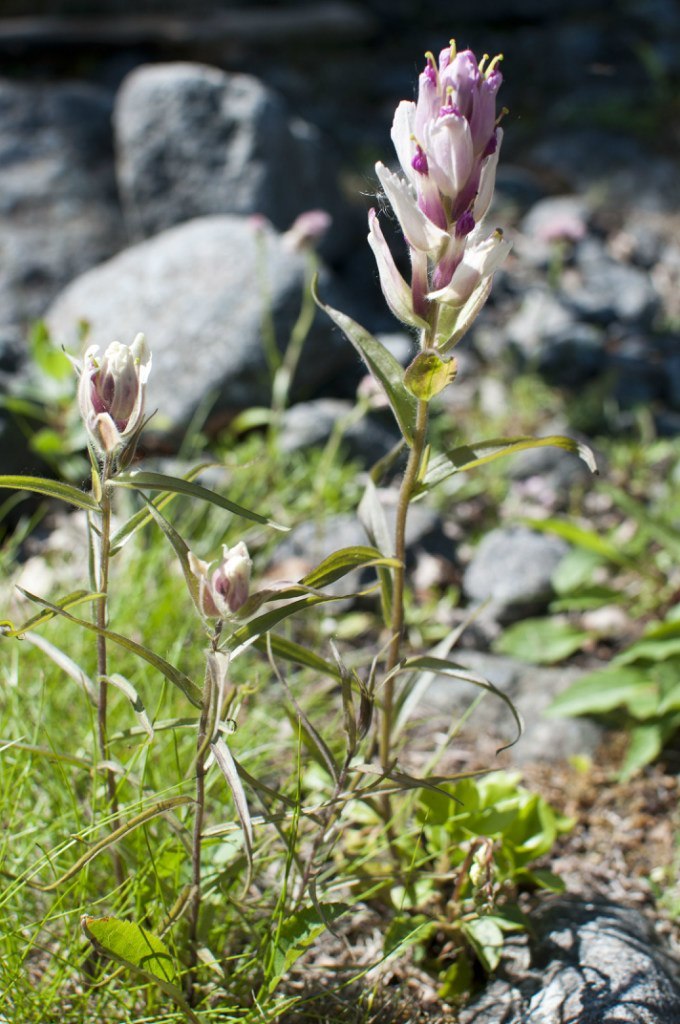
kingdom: Plantae
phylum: Tracheophyta
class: Magnoliopsida
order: Lamiales
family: Orobanchaceae
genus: Castilleja
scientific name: Castilleja lapponica
